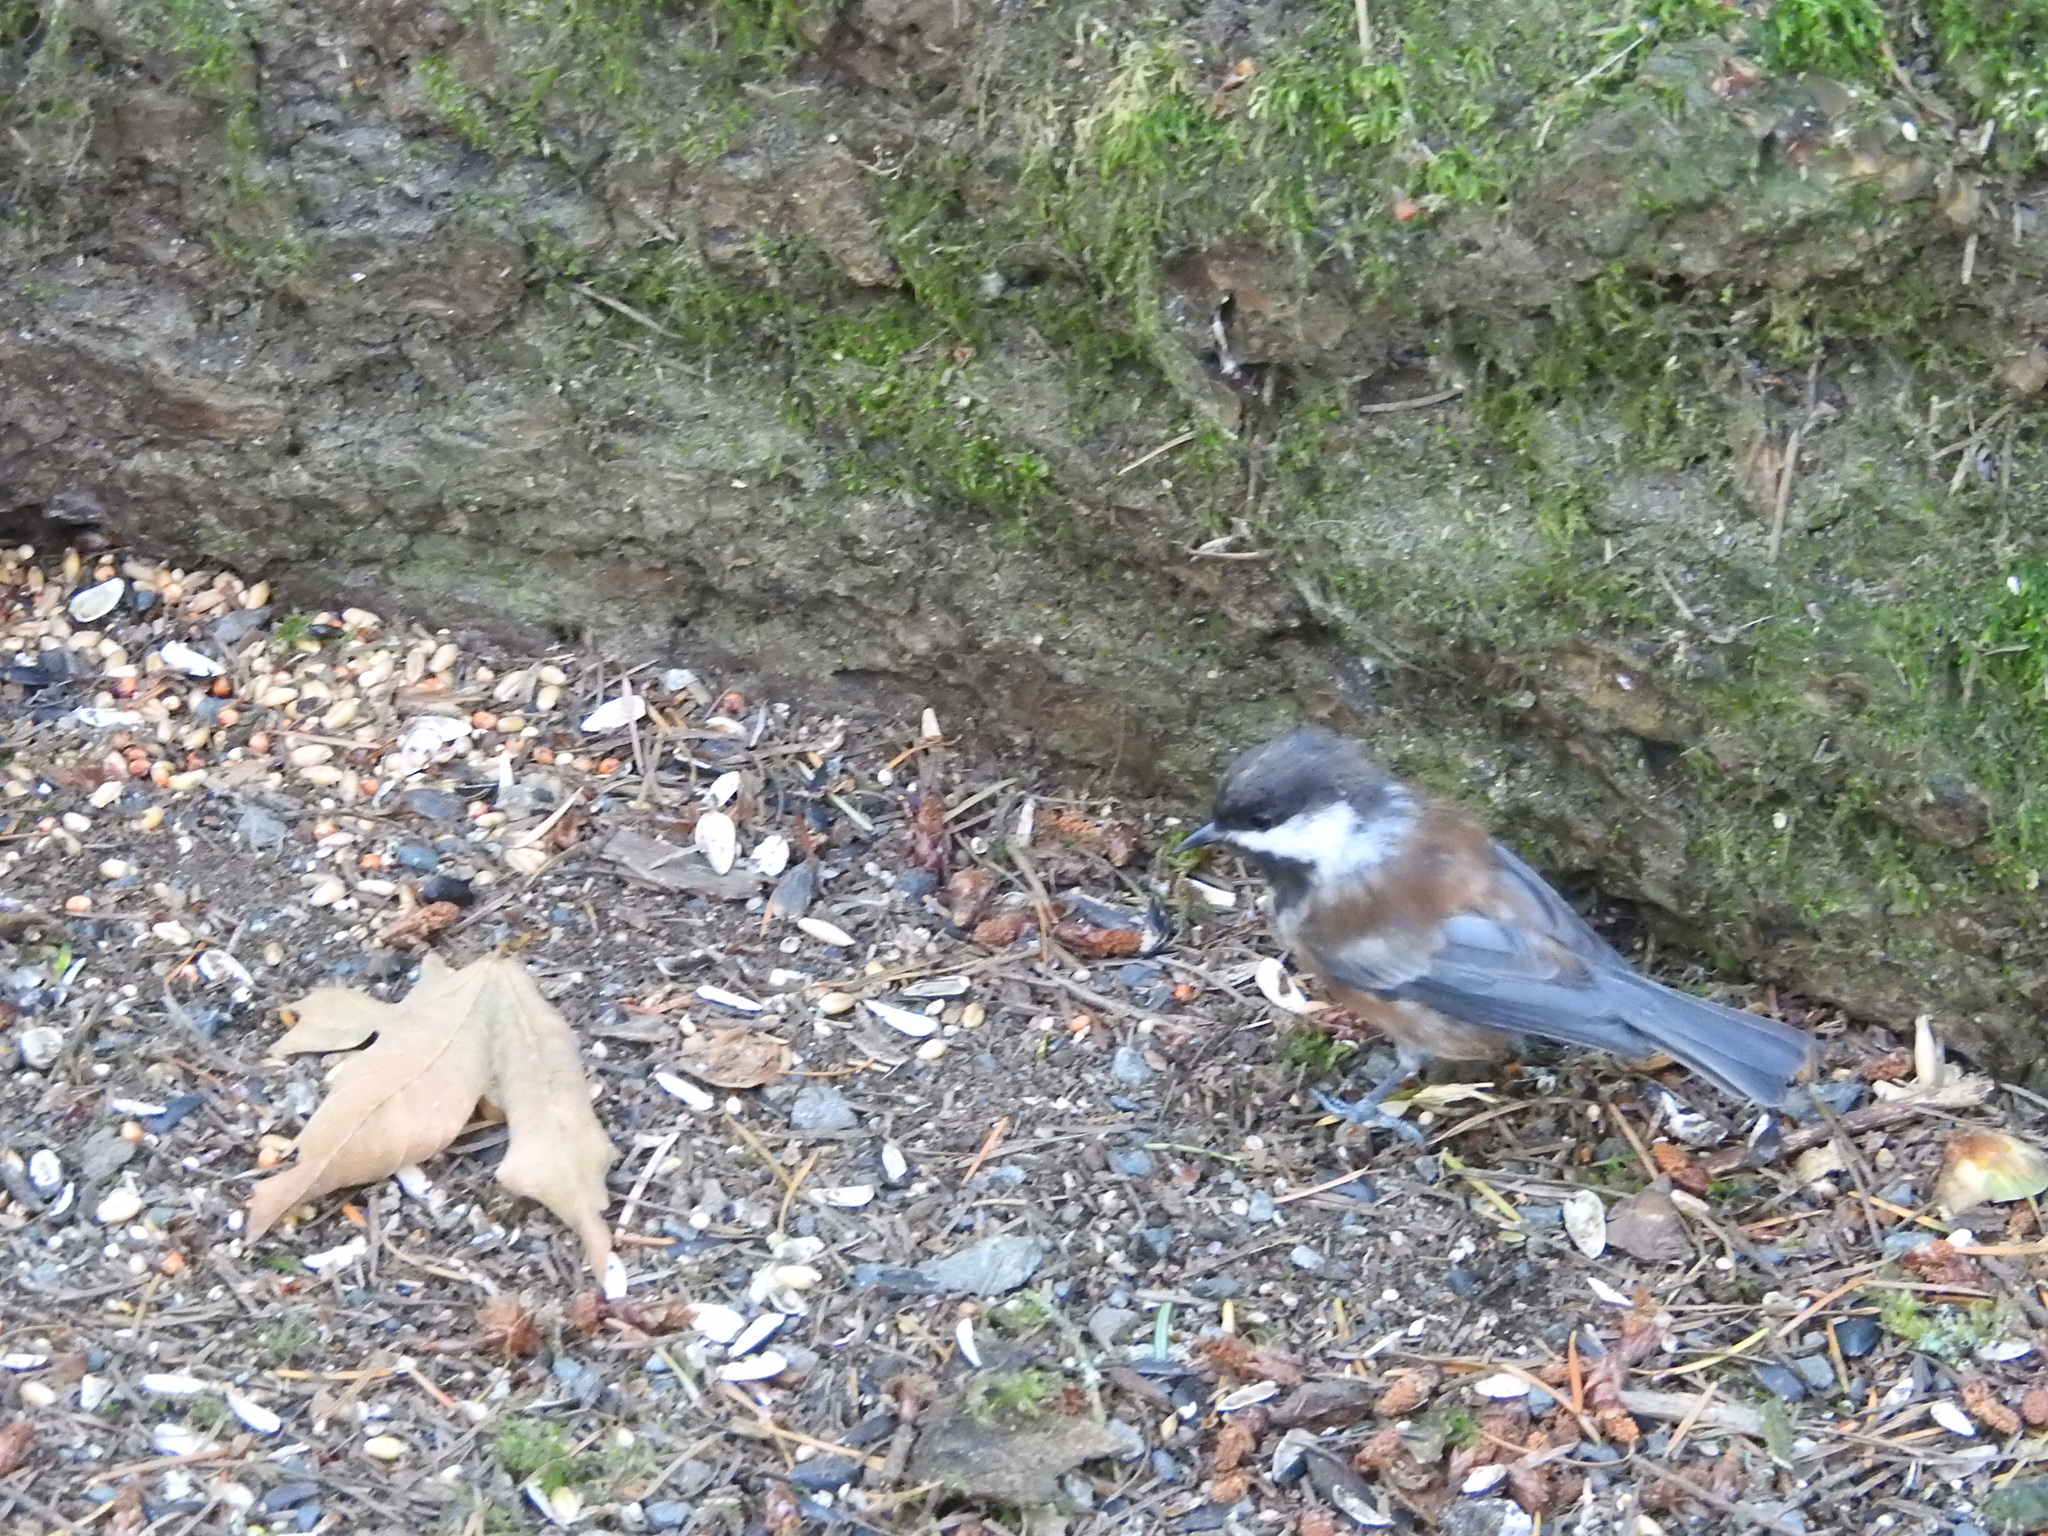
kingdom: Animalia
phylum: Chordata
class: Aves
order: Passeriformes
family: Paridae
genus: Poecile
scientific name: Poecile rufescens
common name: Chestnut-backed chickadee
